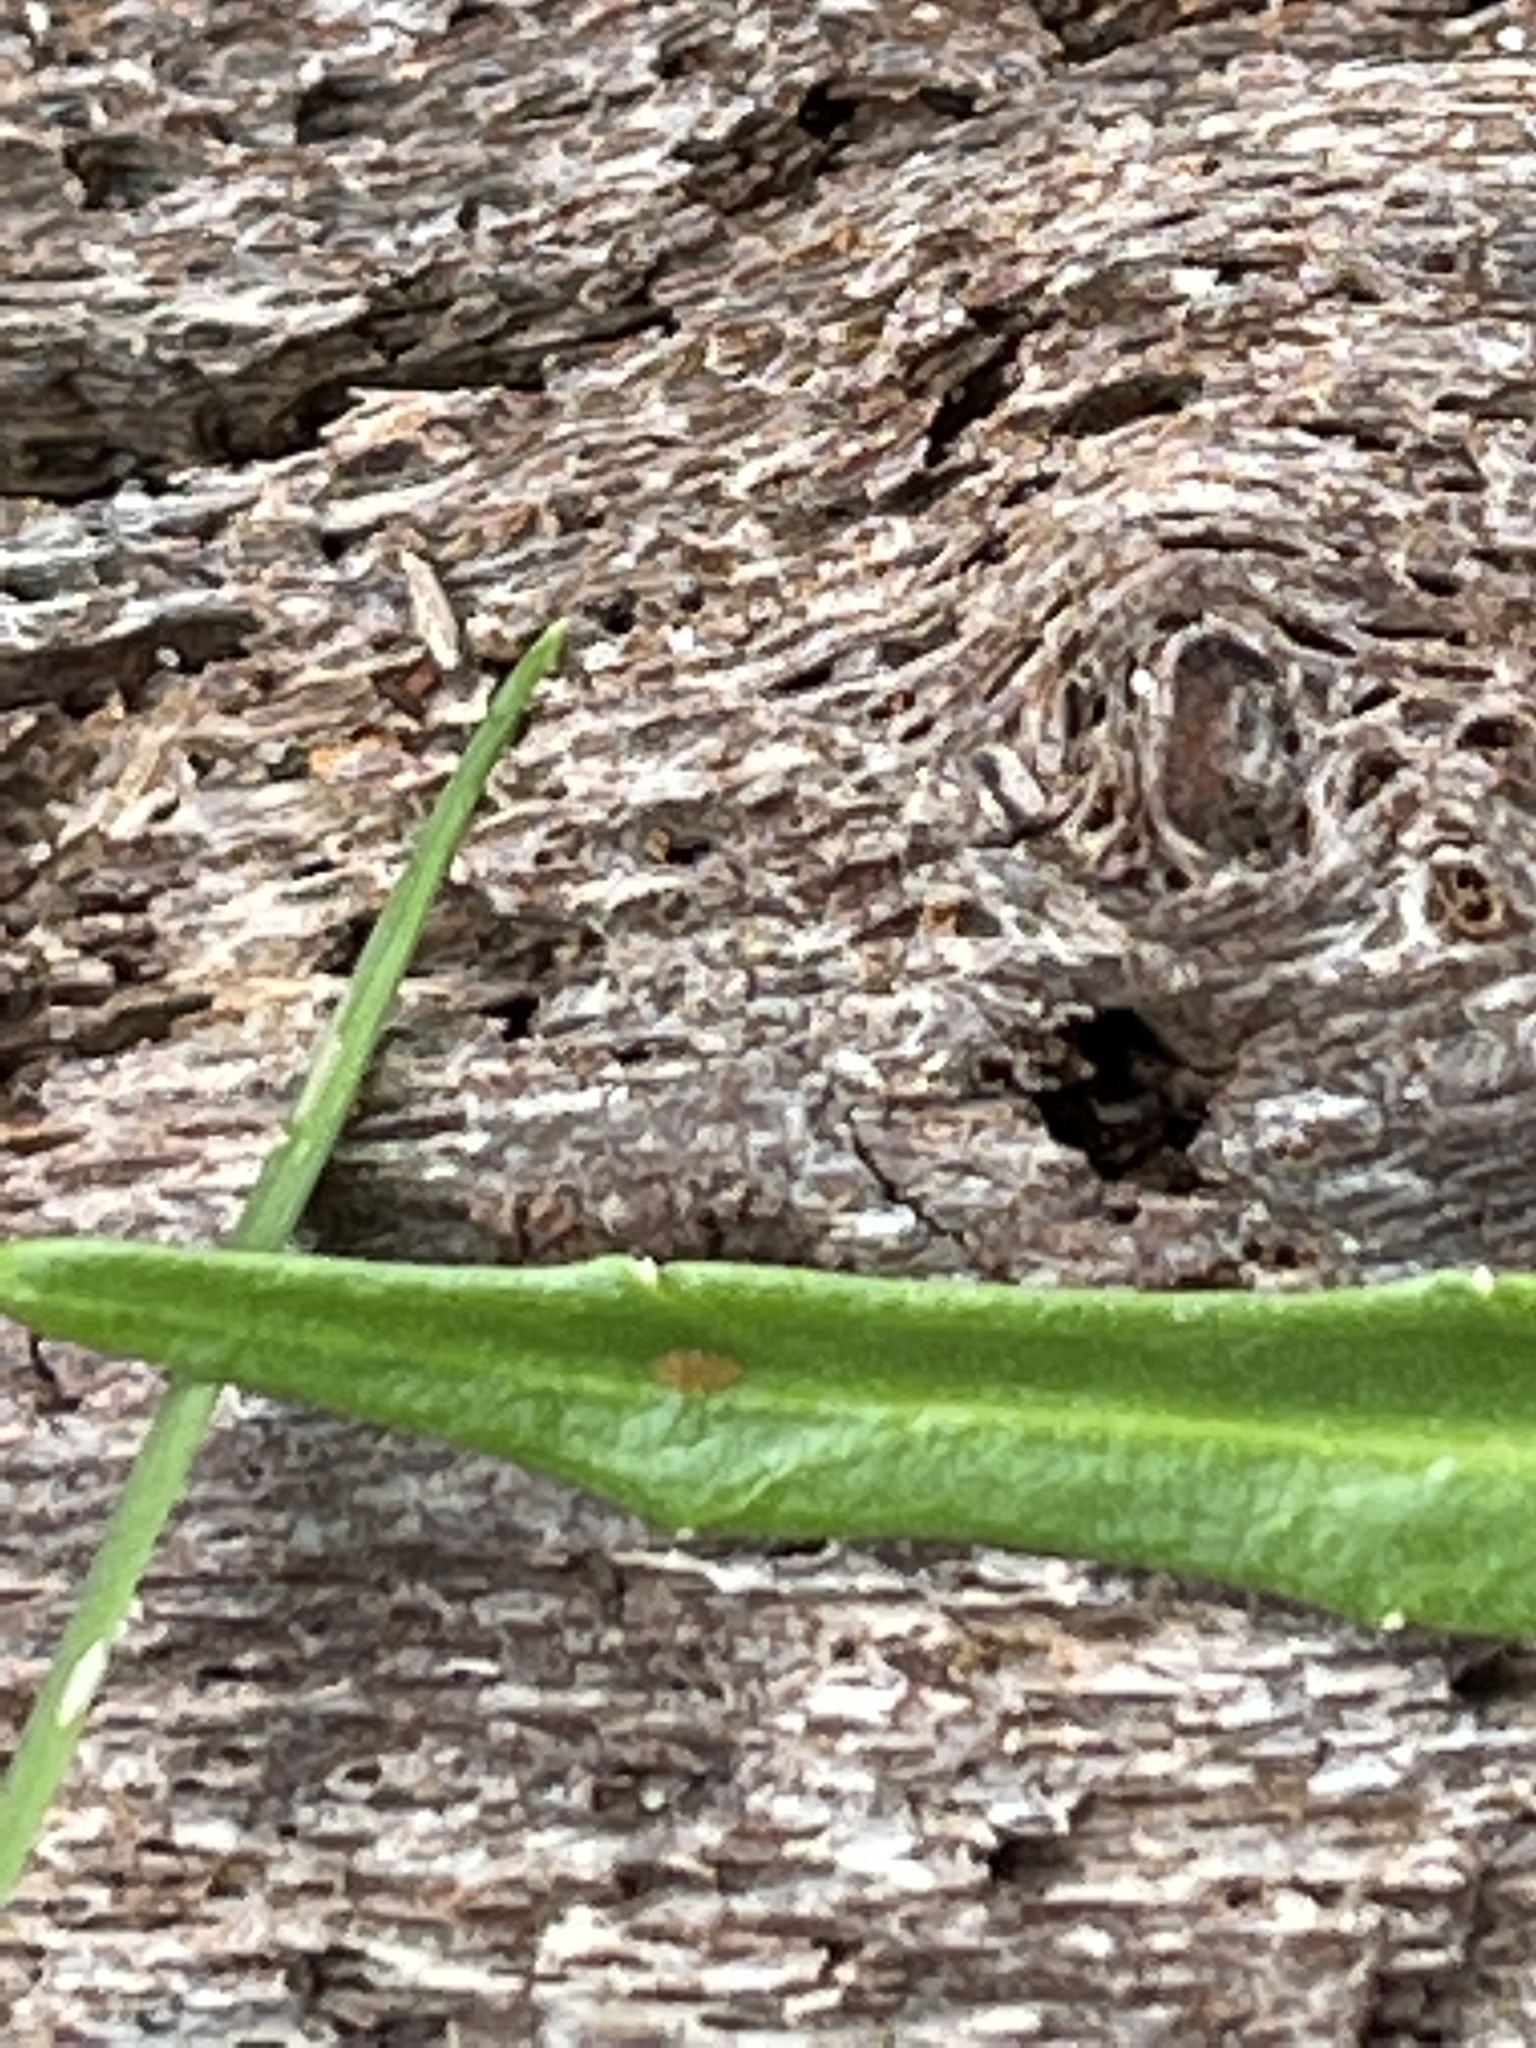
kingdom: Plantae
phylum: Tracheophyta
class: Magnoliopsida
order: Asterales
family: Campanulaceae
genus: Lobelia
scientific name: Lobelia anceps
